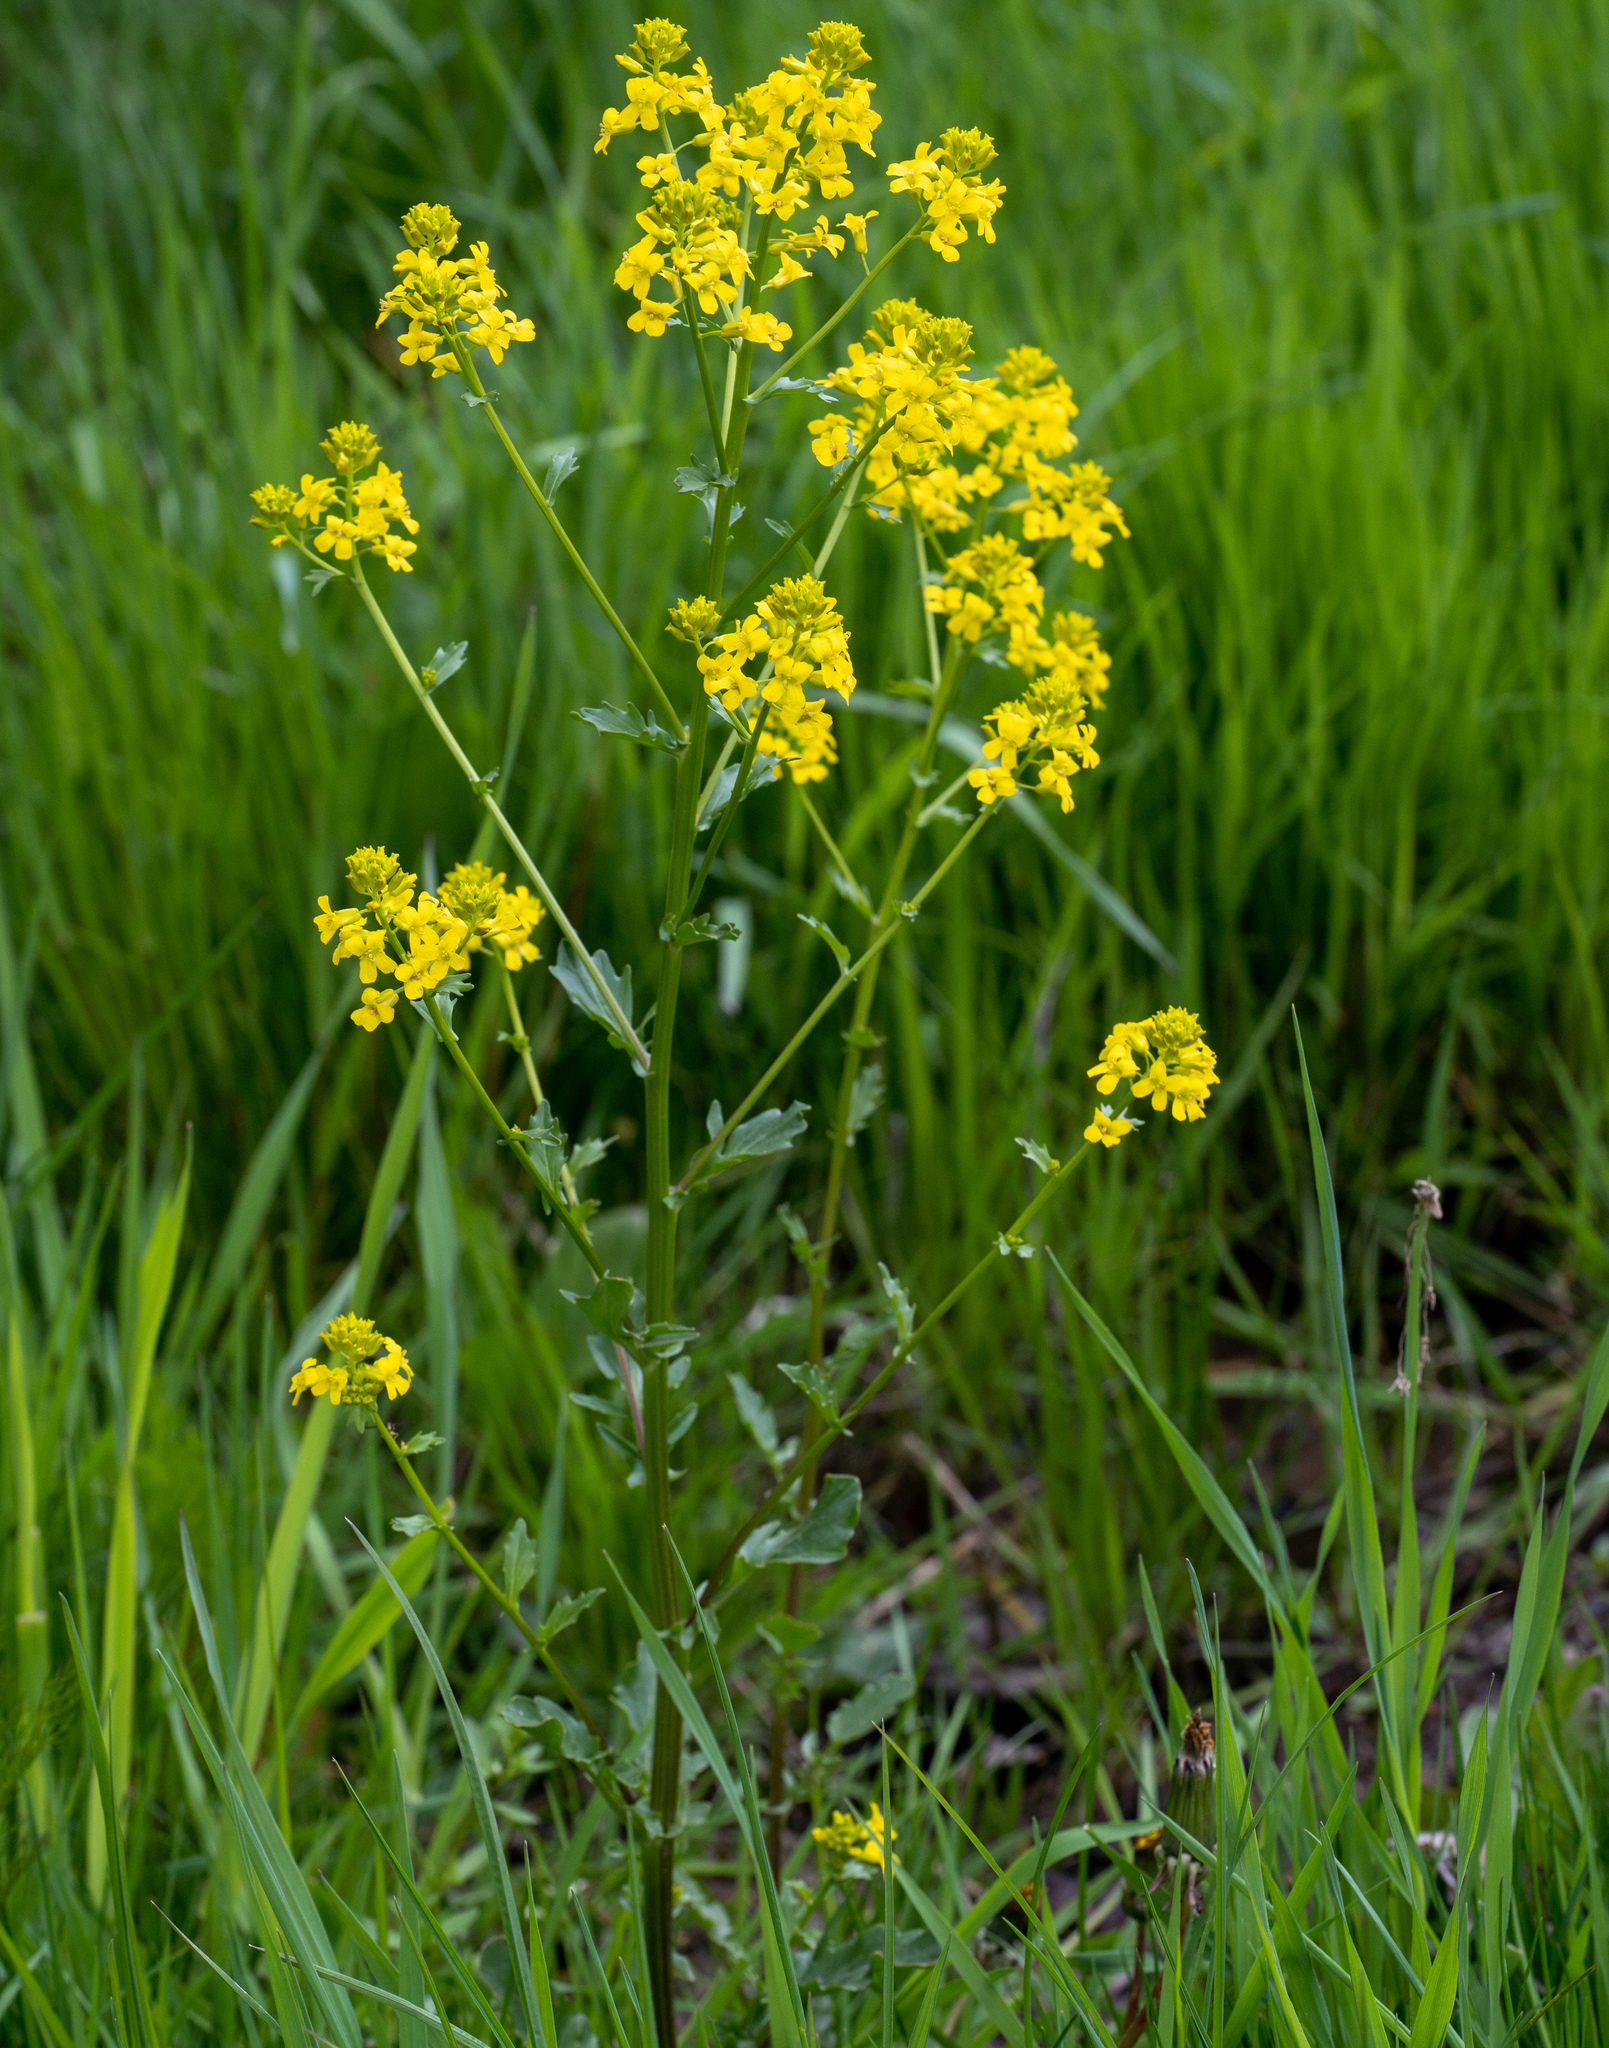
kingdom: Plantae
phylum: Tracheophyta
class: Magnoliopsida
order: Brassicales
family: Brassicaceae
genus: Barbarea
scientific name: Barbarea vulgaris
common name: Cressy-greens
